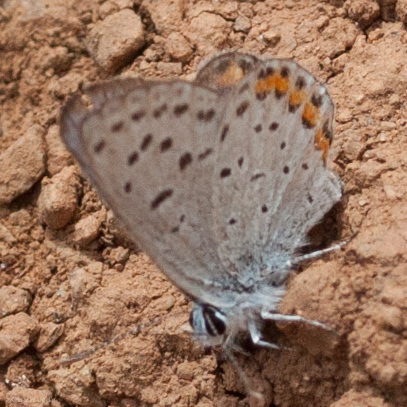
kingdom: Animalia
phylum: Arthropoda
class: Insecta
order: Lepidoptera
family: Lycaenidae
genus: Icaricia
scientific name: Icaricia acmon
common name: Acmon blue
